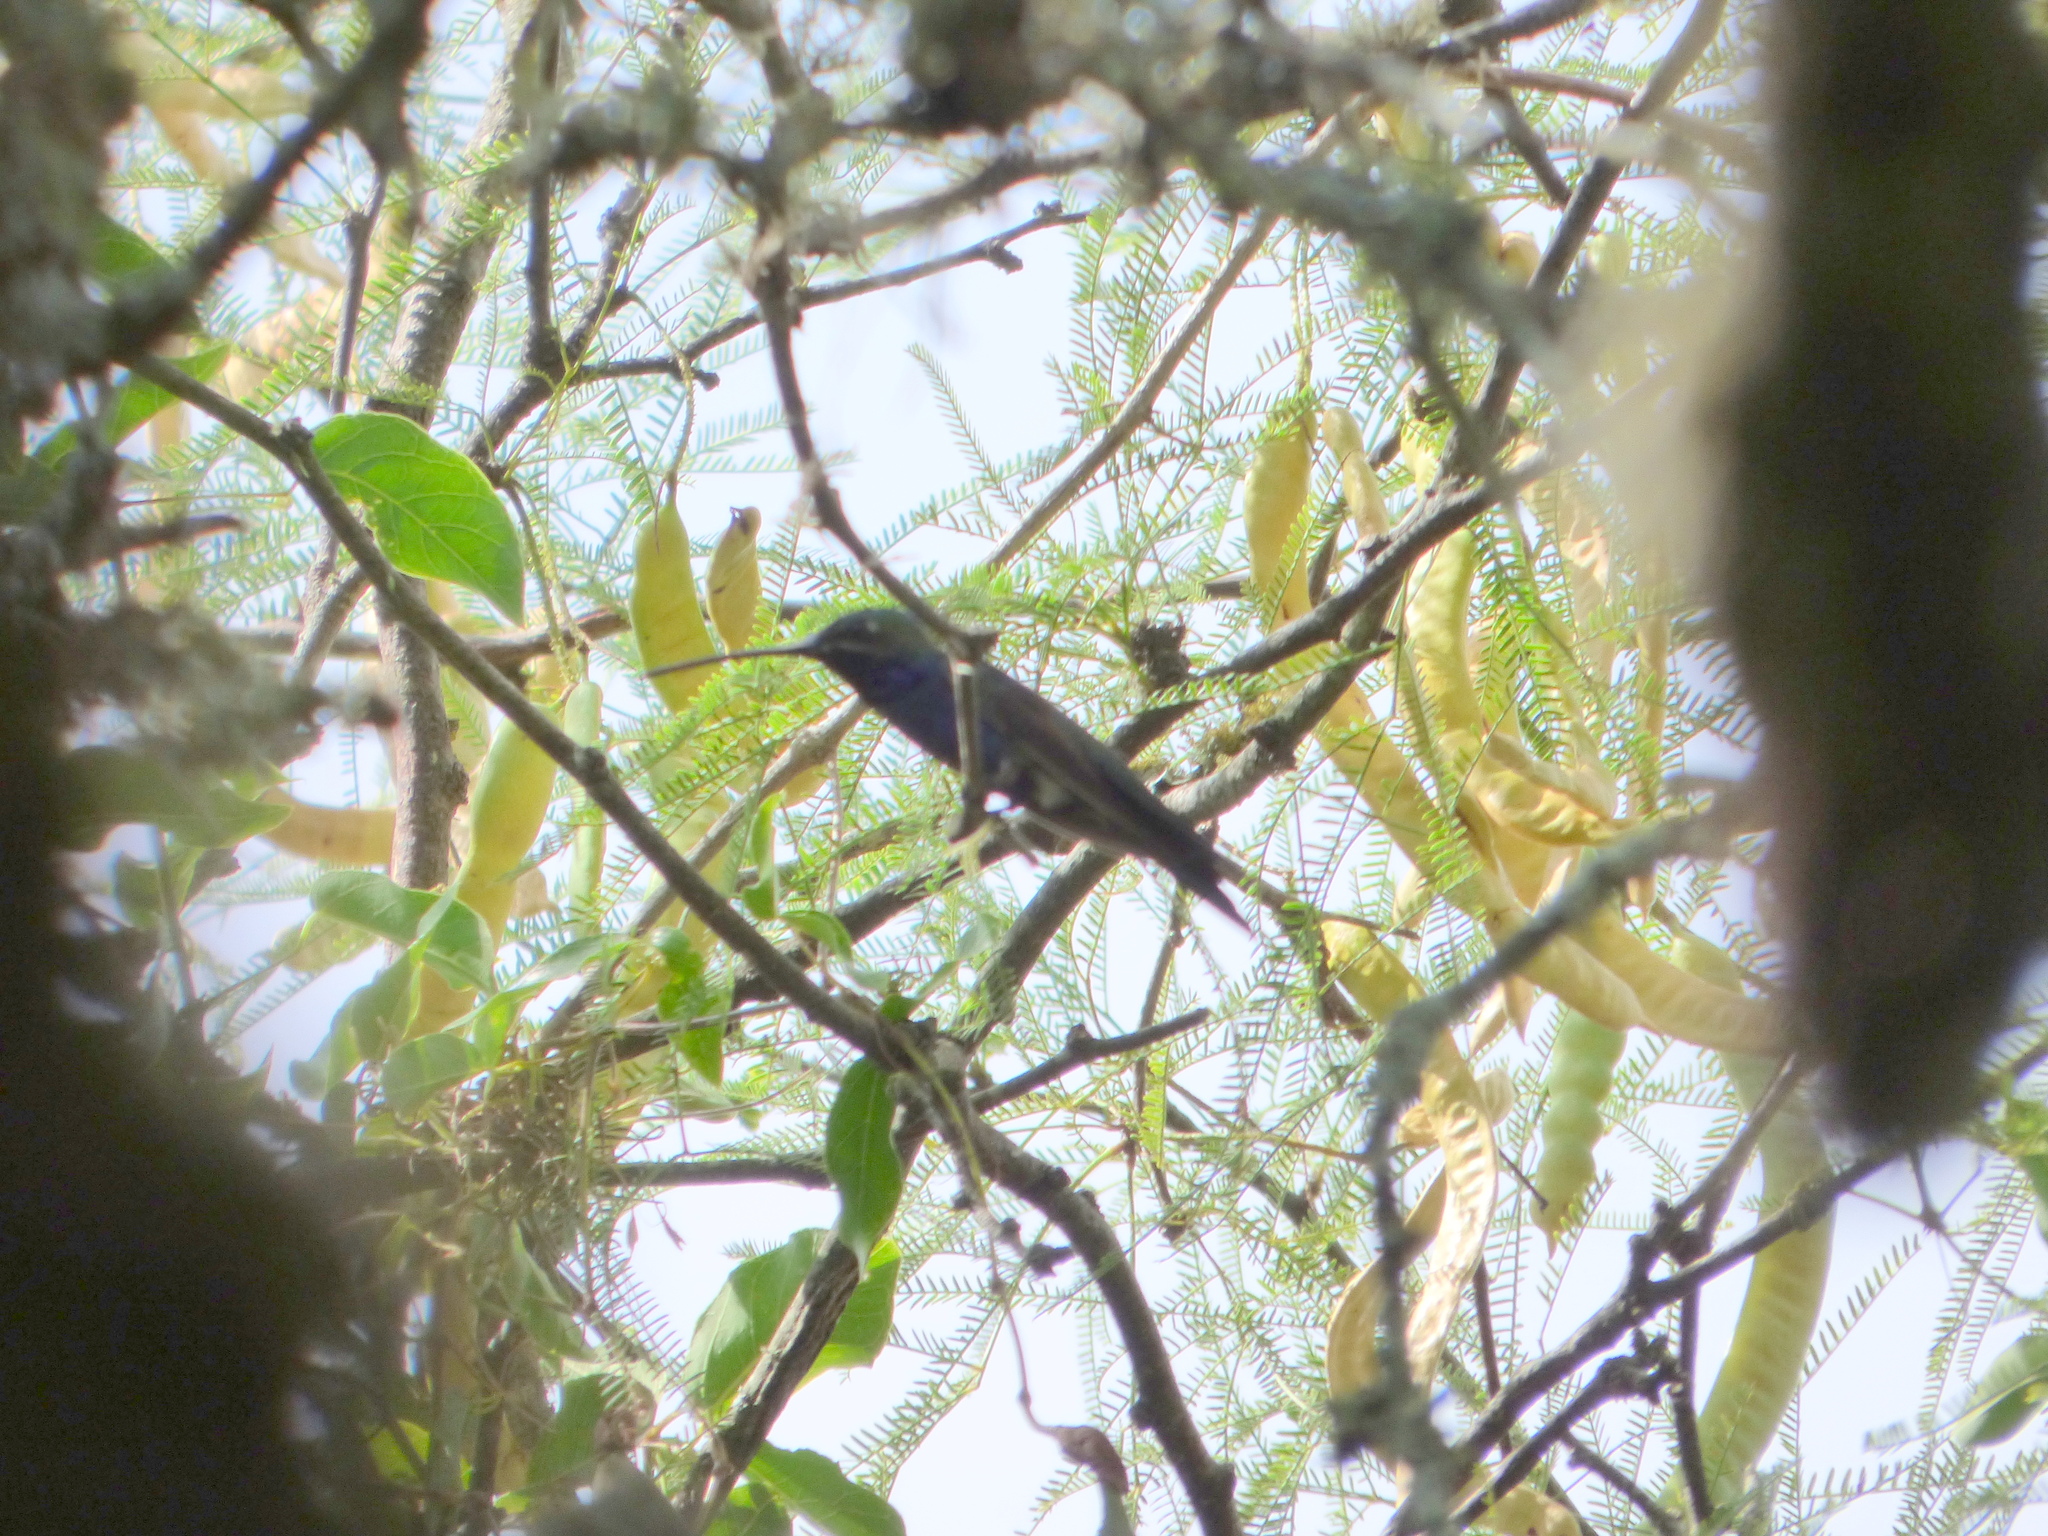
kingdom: Animalia
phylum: Chordata
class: Aves
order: Apodiformes
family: Trochilidae
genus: Heliomaster
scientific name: Heliomaster furcifer
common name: Blue-tufted starthroat
